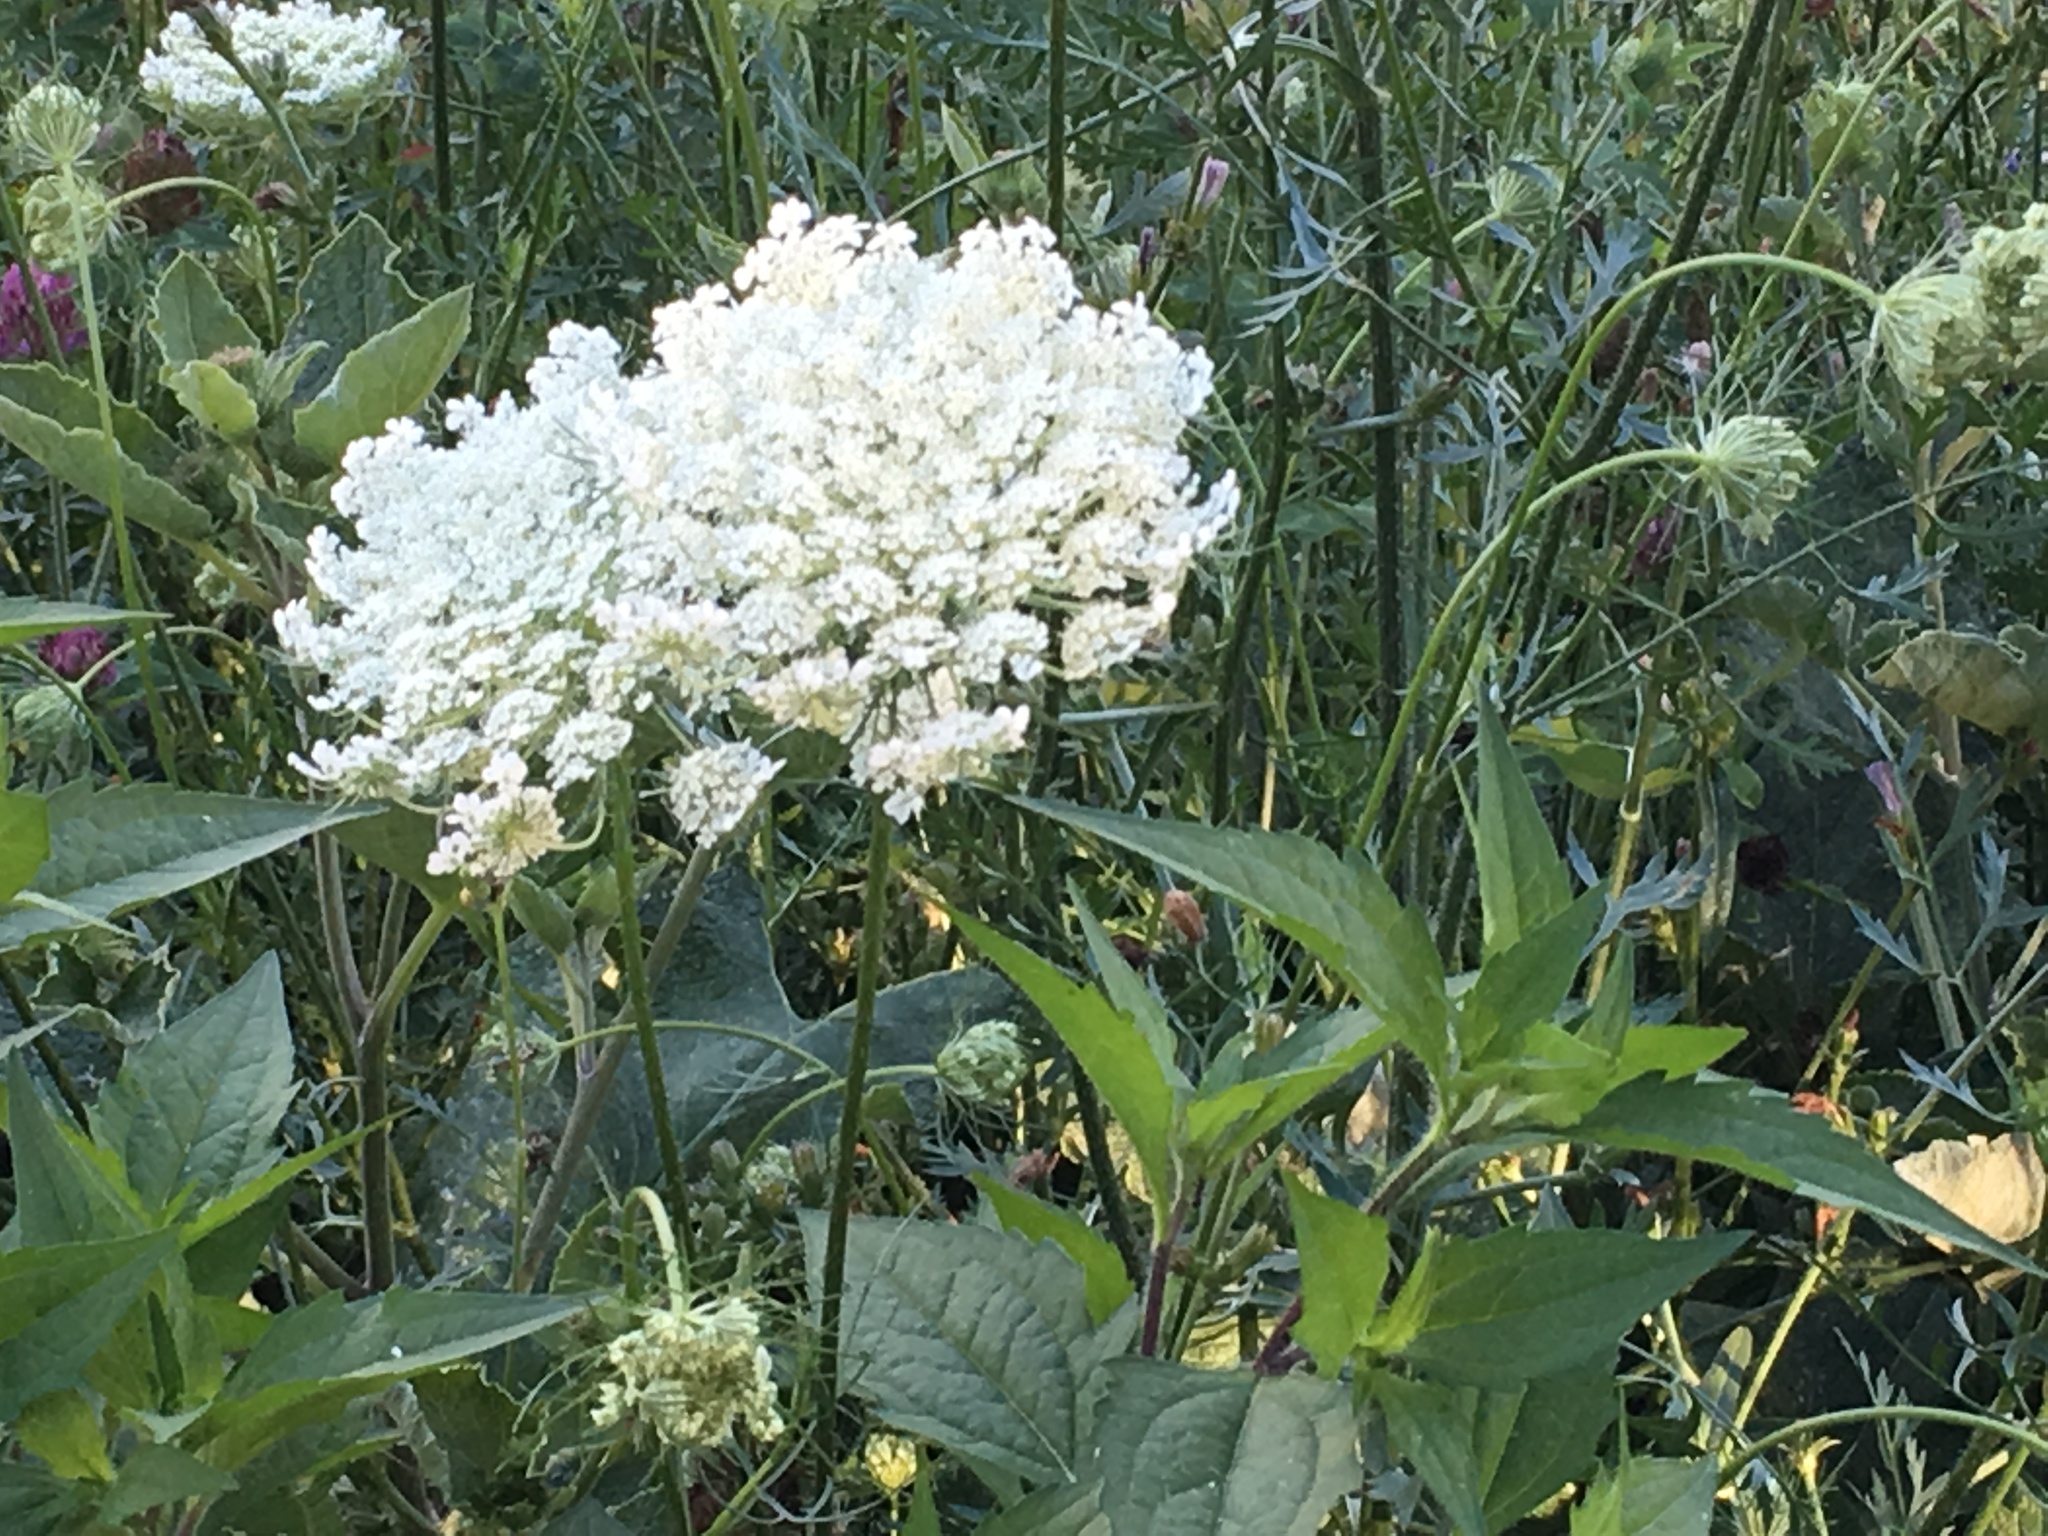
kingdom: Plantae
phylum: Tracheophyta
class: Magnoliopsida
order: Apiales
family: Apiaceae
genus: Daucus
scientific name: Daucus carota
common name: Wild carrot
